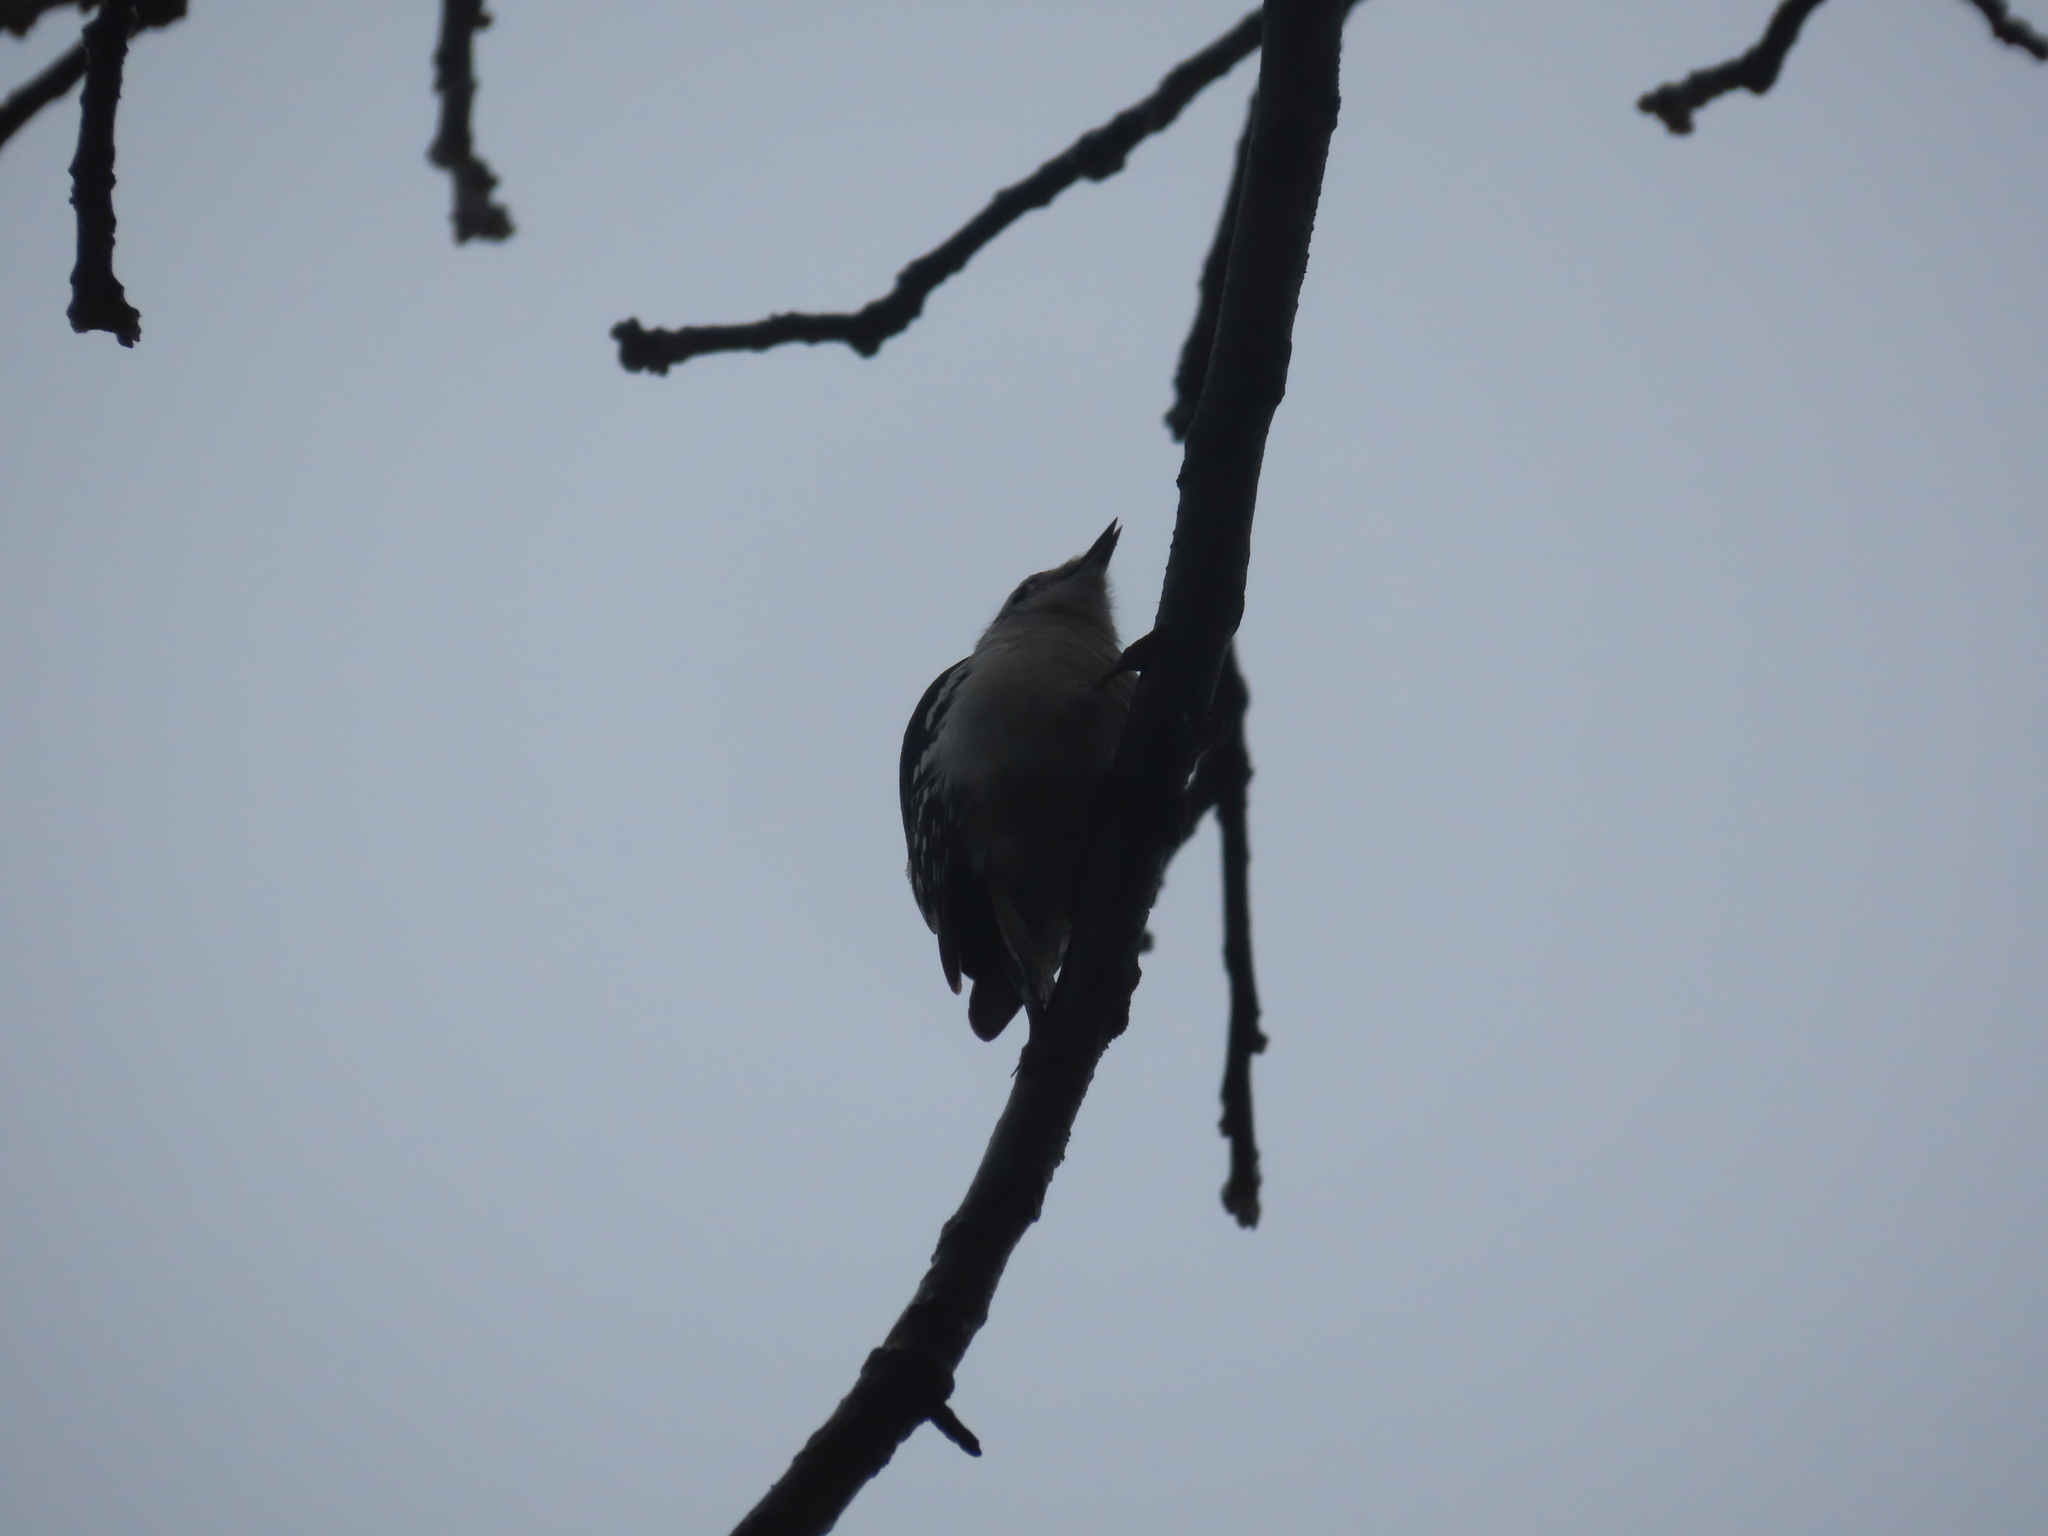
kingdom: Animalia
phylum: Chordata
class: Aves
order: Piciformes
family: Picidae
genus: Dryobates
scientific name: Dryobates pubescens
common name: Downy woodpecker
